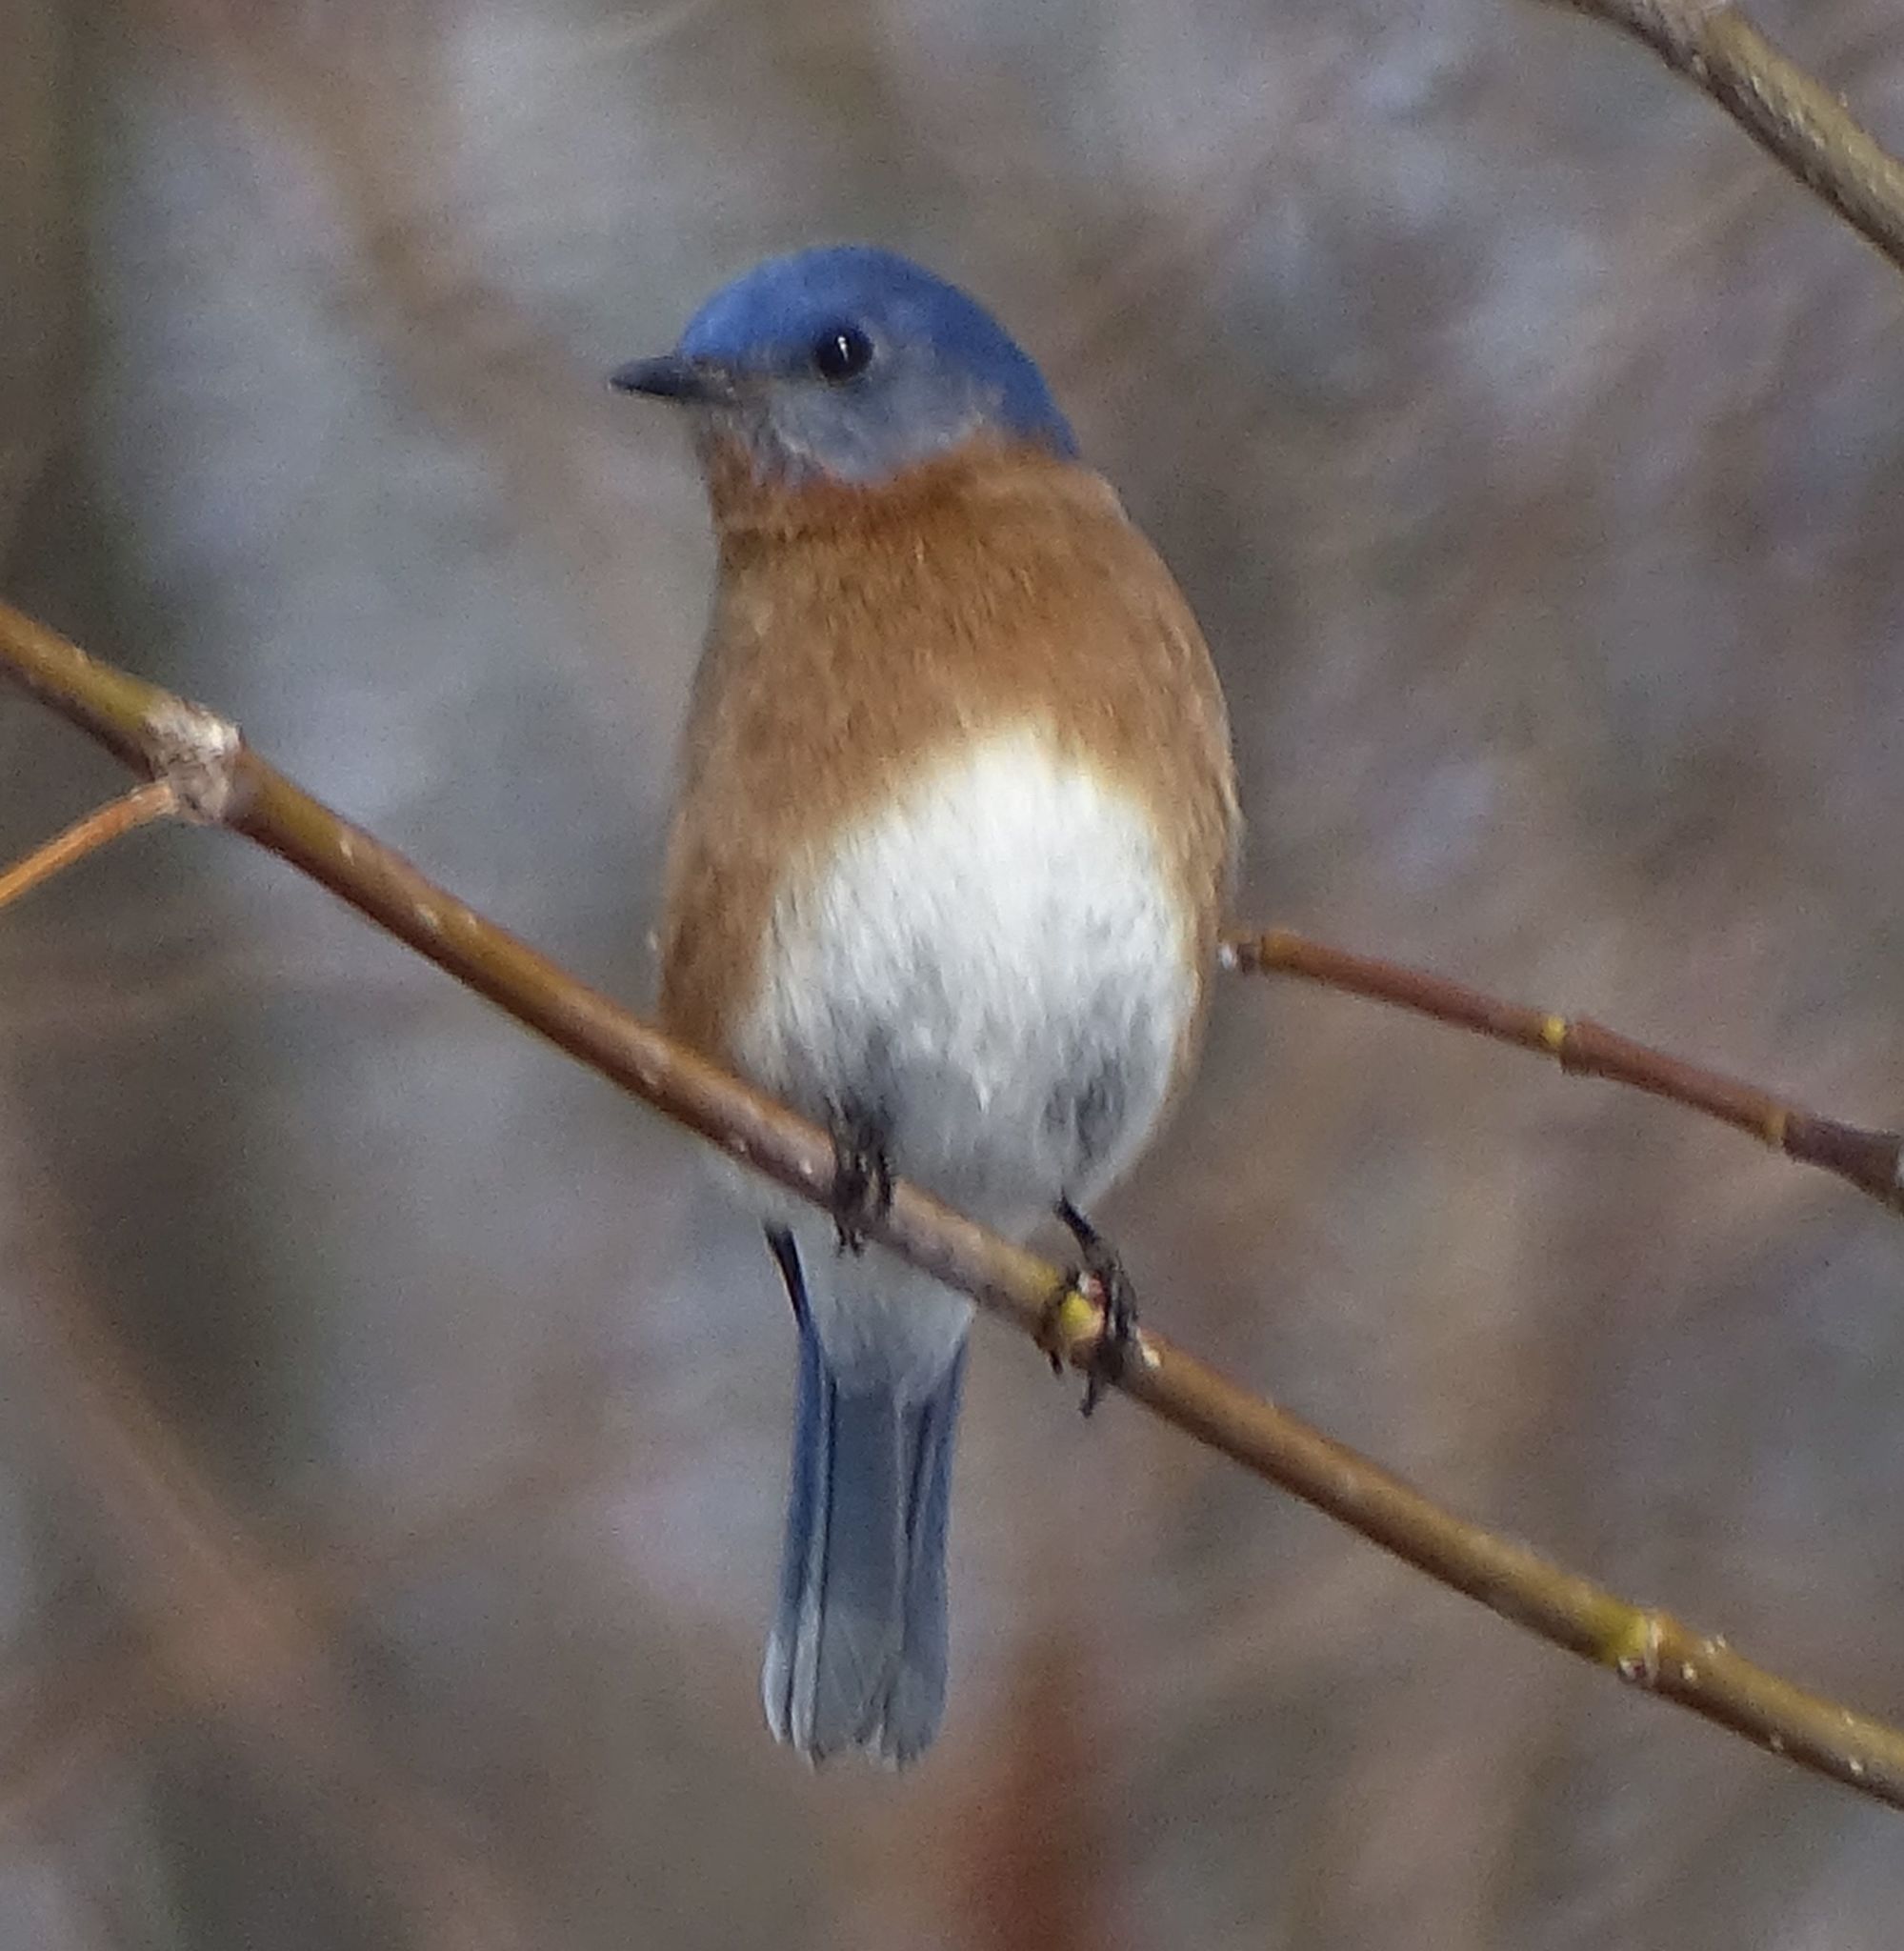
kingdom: Animalia
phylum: Chordata
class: Aves
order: Passeriformes
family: Turdidae
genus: Sialia
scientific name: Sialia sialis
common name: Eastern bluebird
